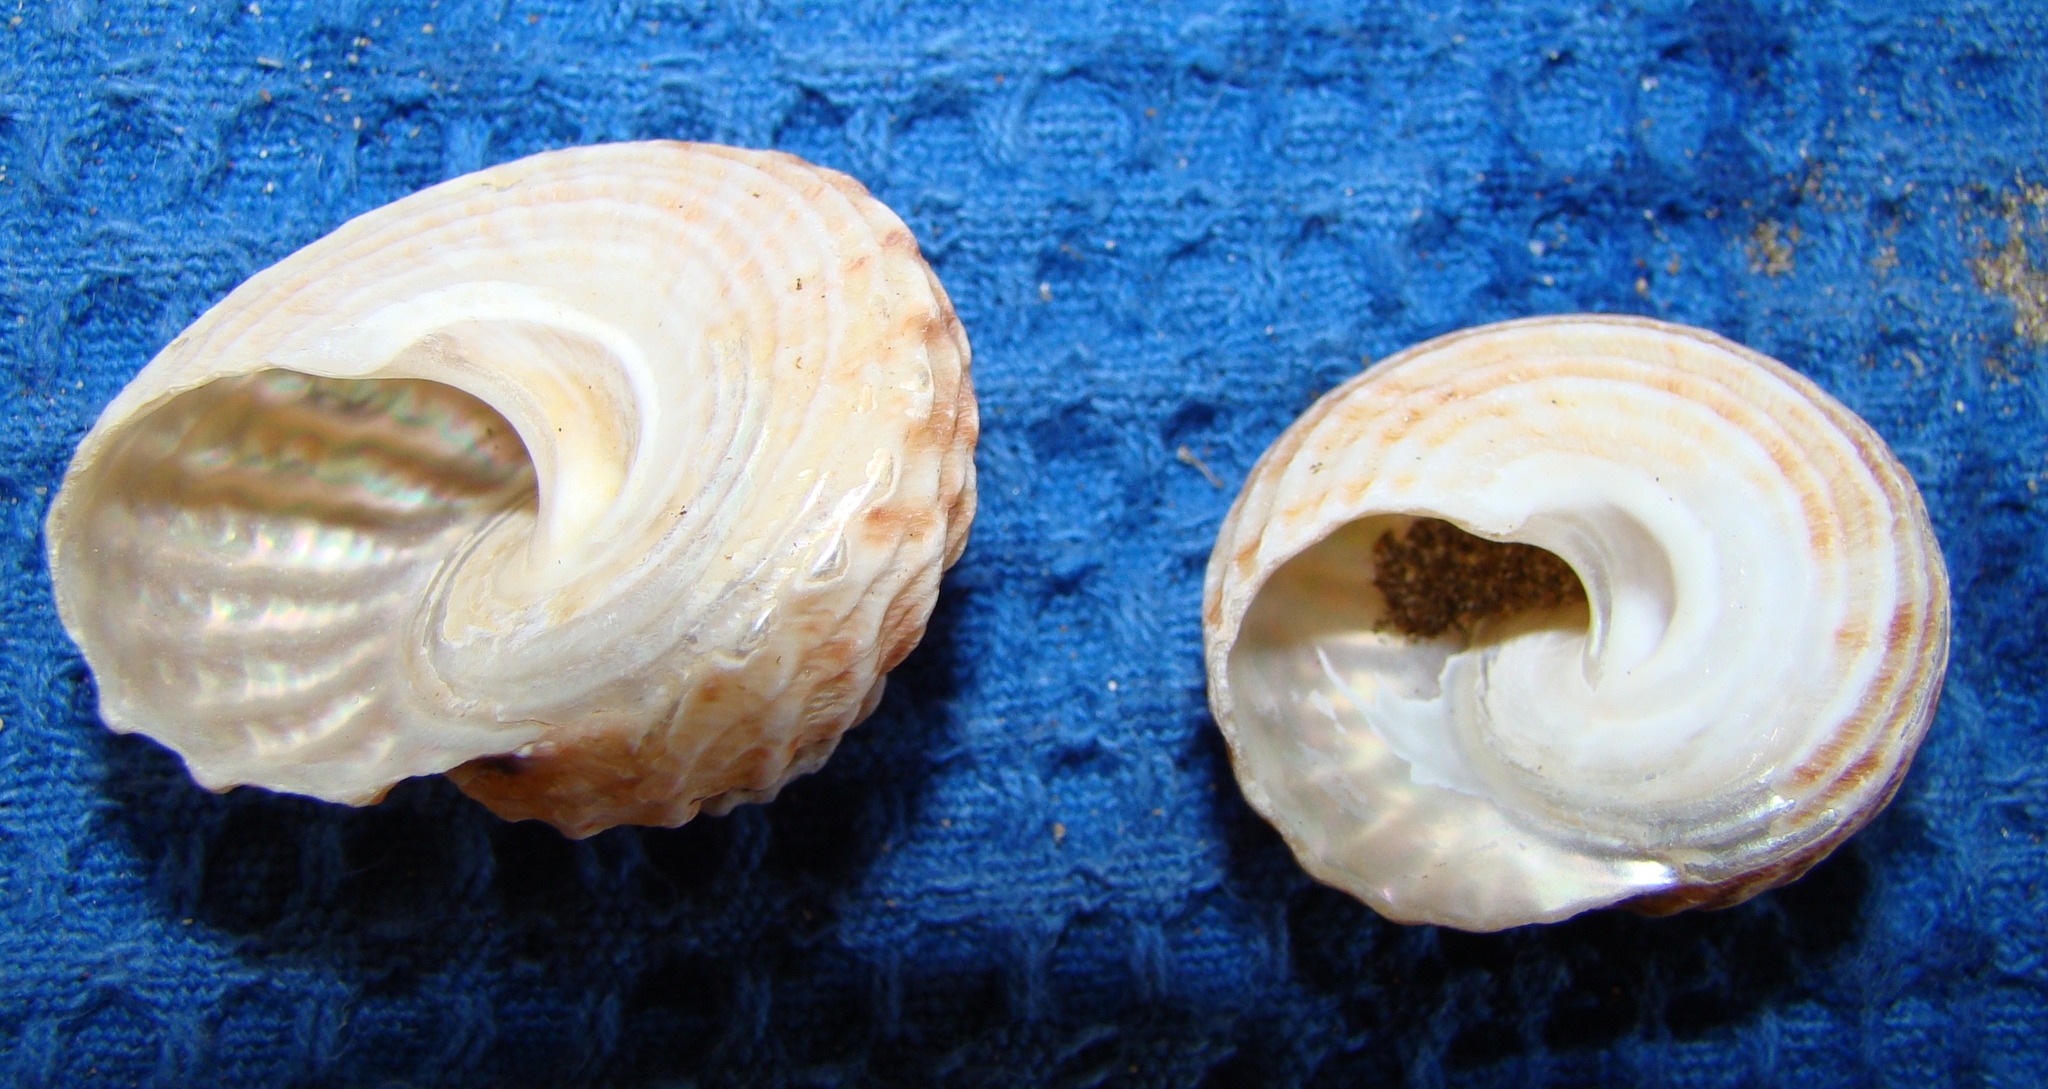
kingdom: Animalia
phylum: Mollusca
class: Gastropoda
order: Trochida
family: Turbinidae
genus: Cookia
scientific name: Cookia sulcata
